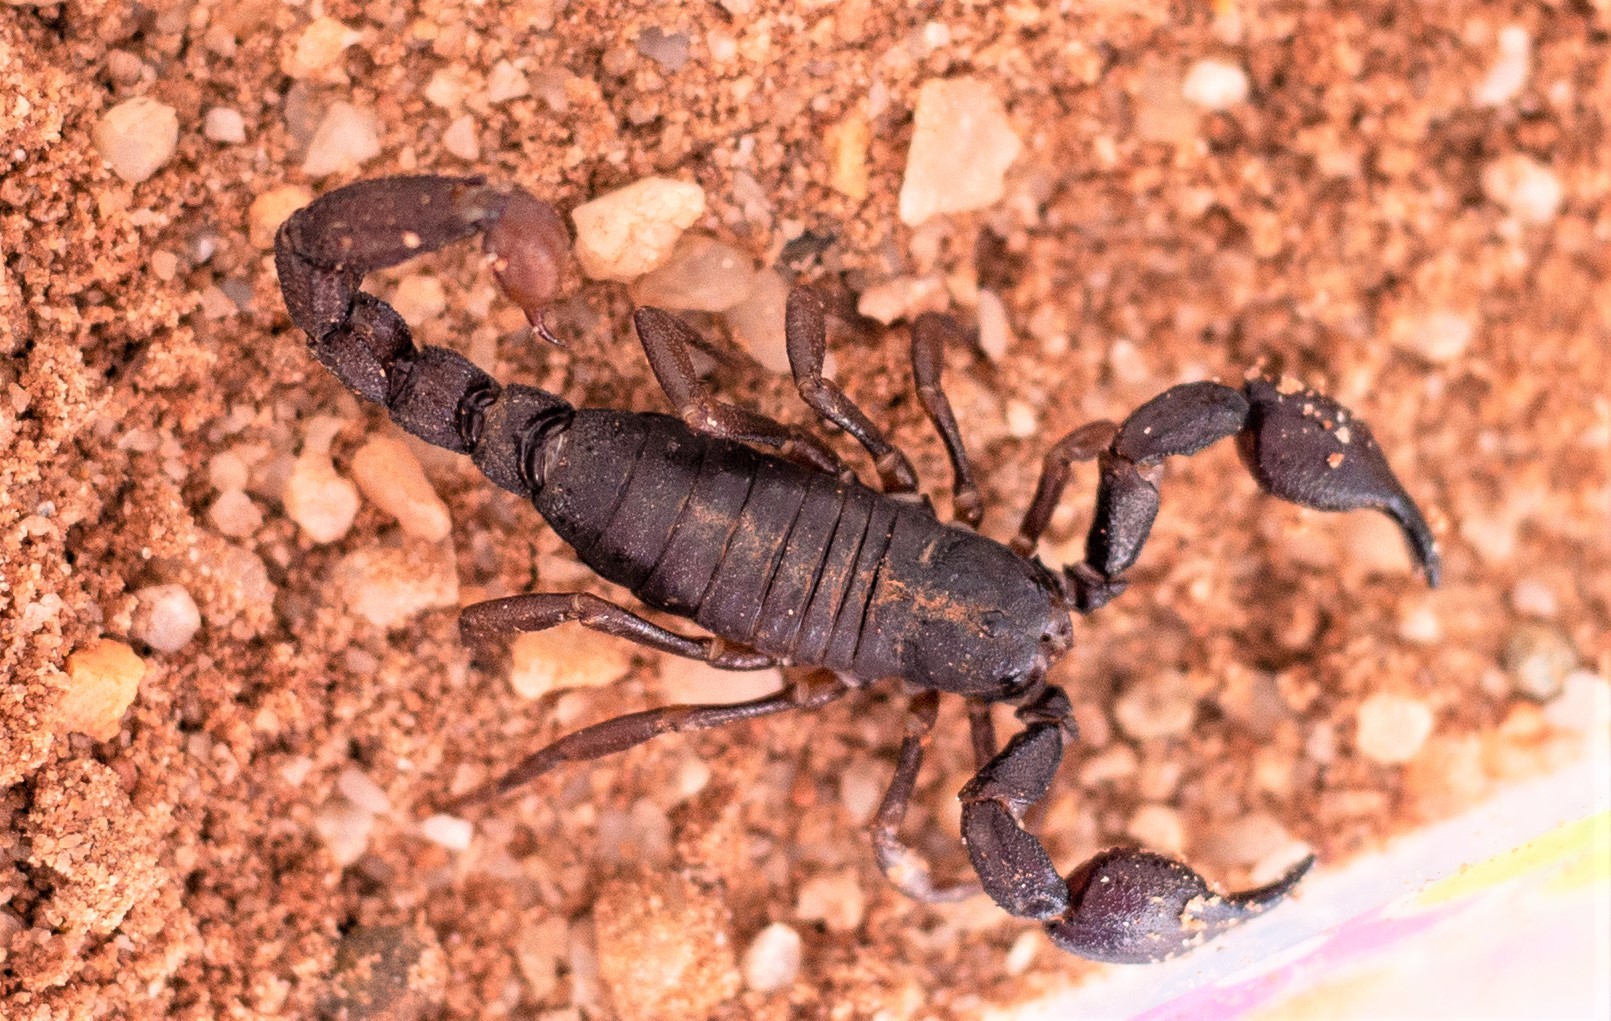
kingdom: Animalia
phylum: Arthropoda
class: Arachnida
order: Scorpiones
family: Chactidae
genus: Brotheas
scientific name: Brotheas granulatus
